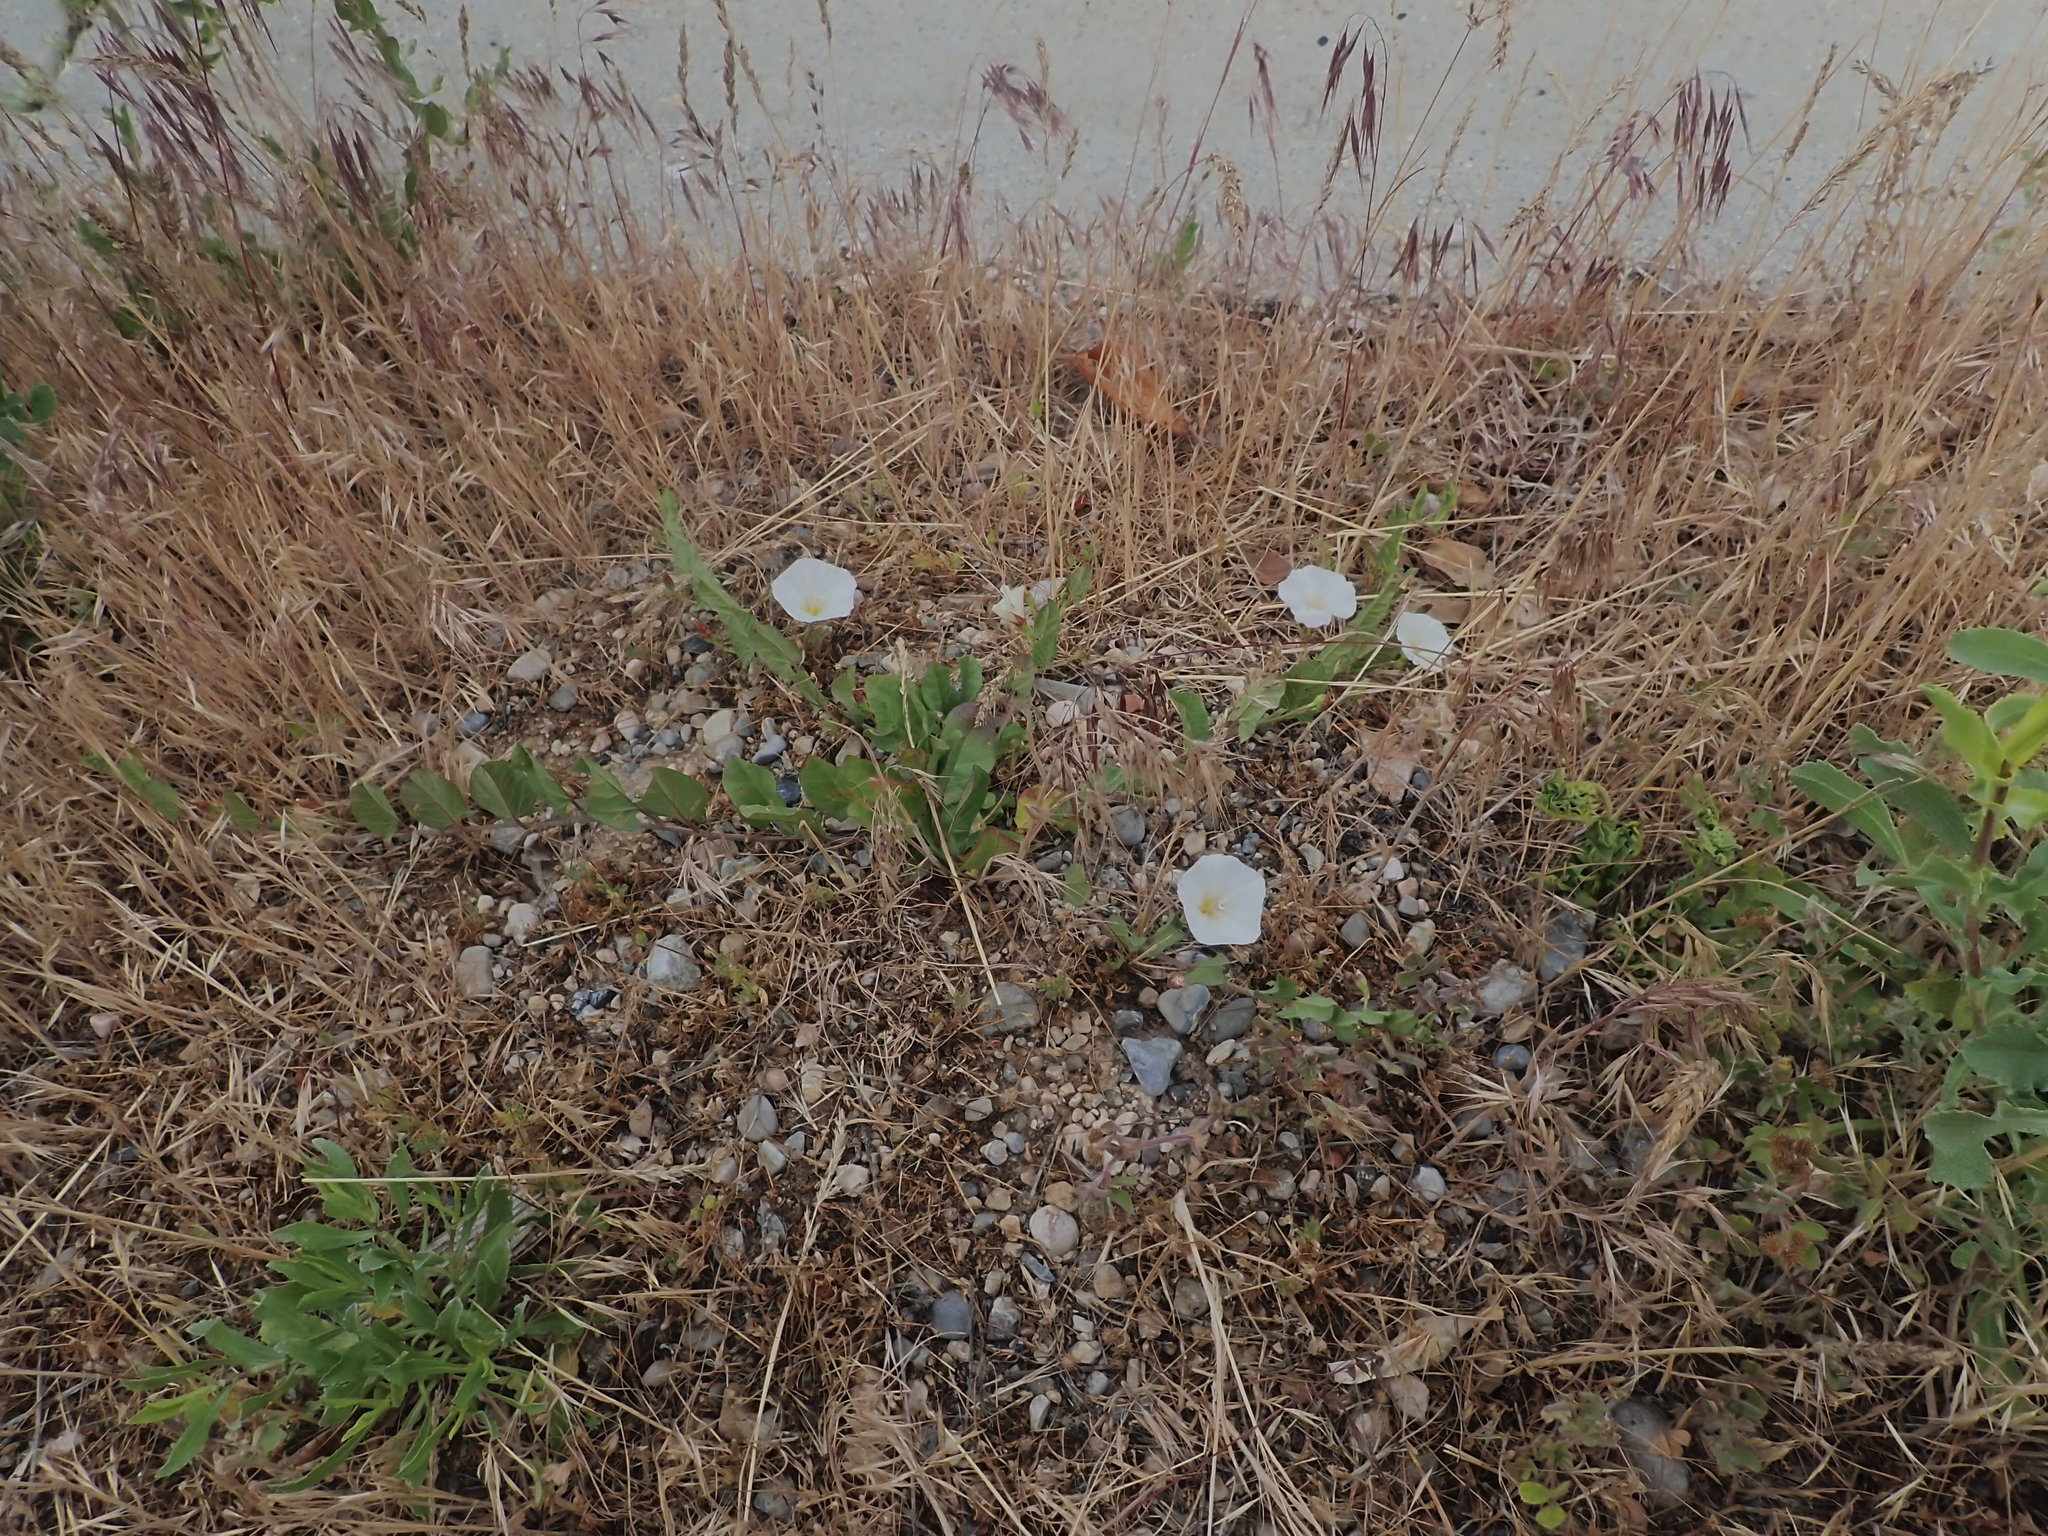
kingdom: Plantae
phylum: Tracheophyta
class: Magnoliopsida
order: Solanales
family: Convolvulaceae
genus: Convolvulus
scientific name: Convolvulus arvensis
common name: Field bindweed
